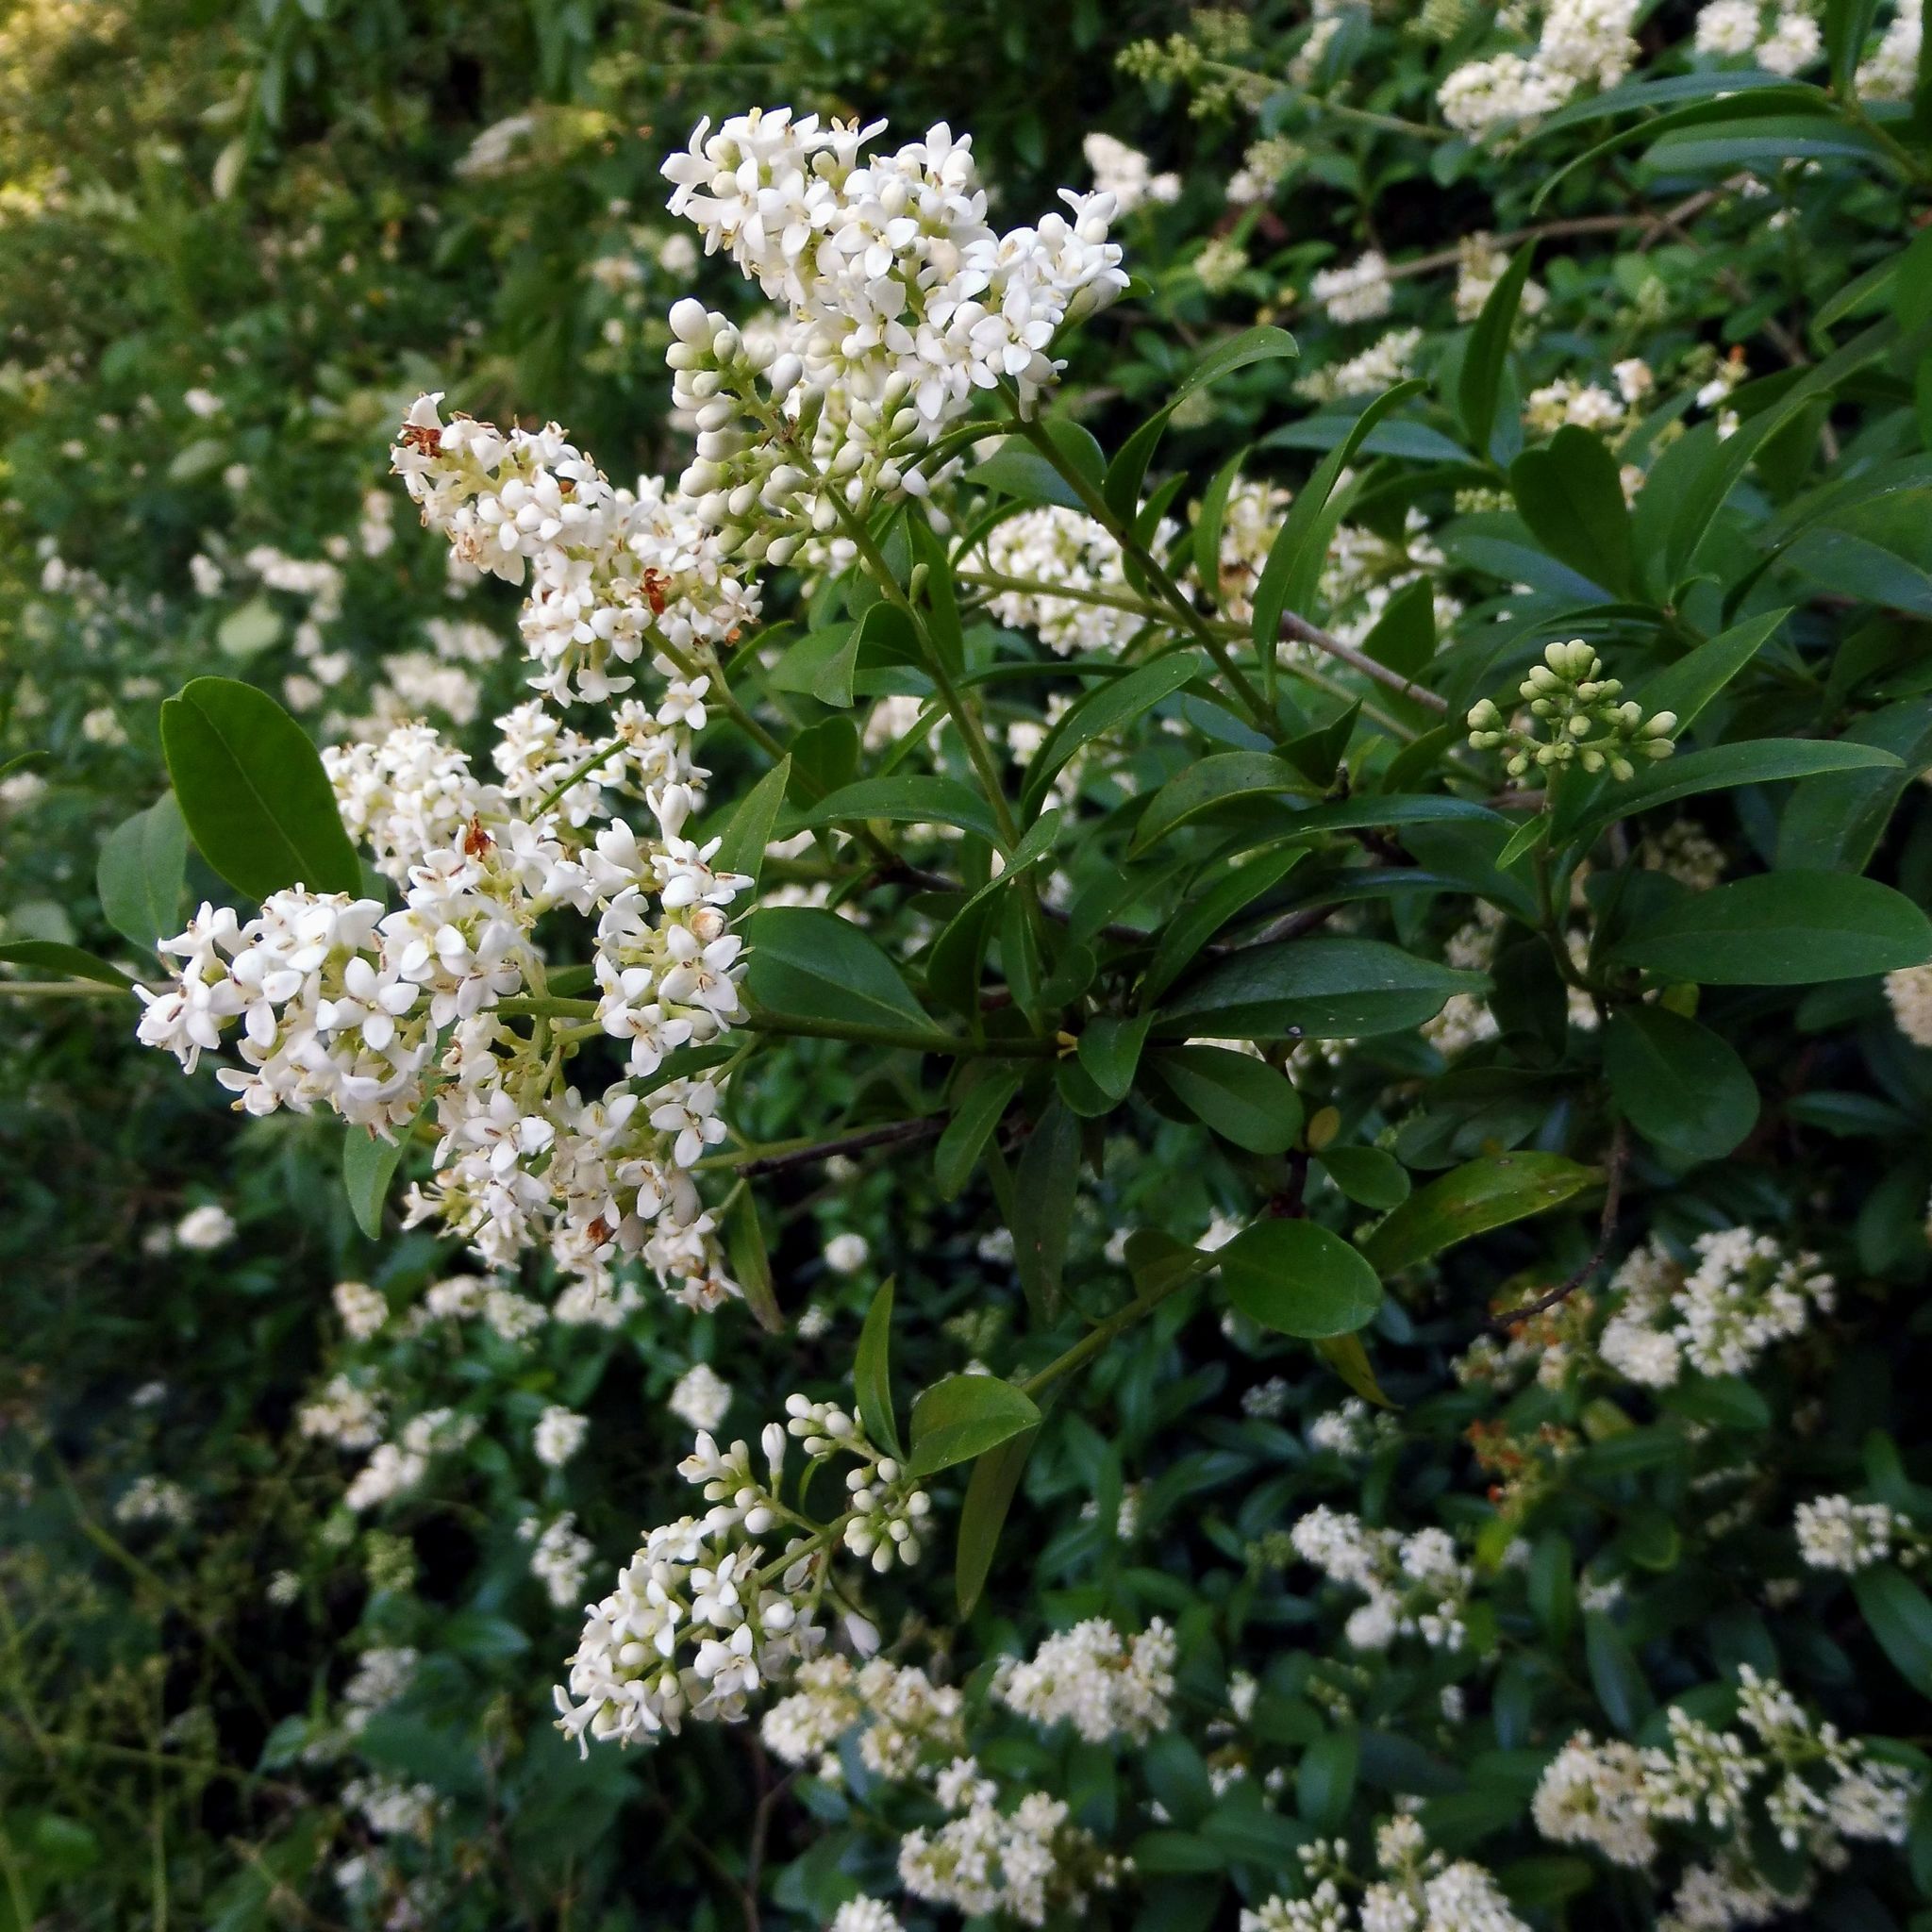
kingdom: Plantae
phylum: Tracheophyta
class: Magnoliopsida
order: Lamiales
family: Oleaceae
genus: Ligustrum
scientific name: Ligustrum vulgare
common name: Wild privet
